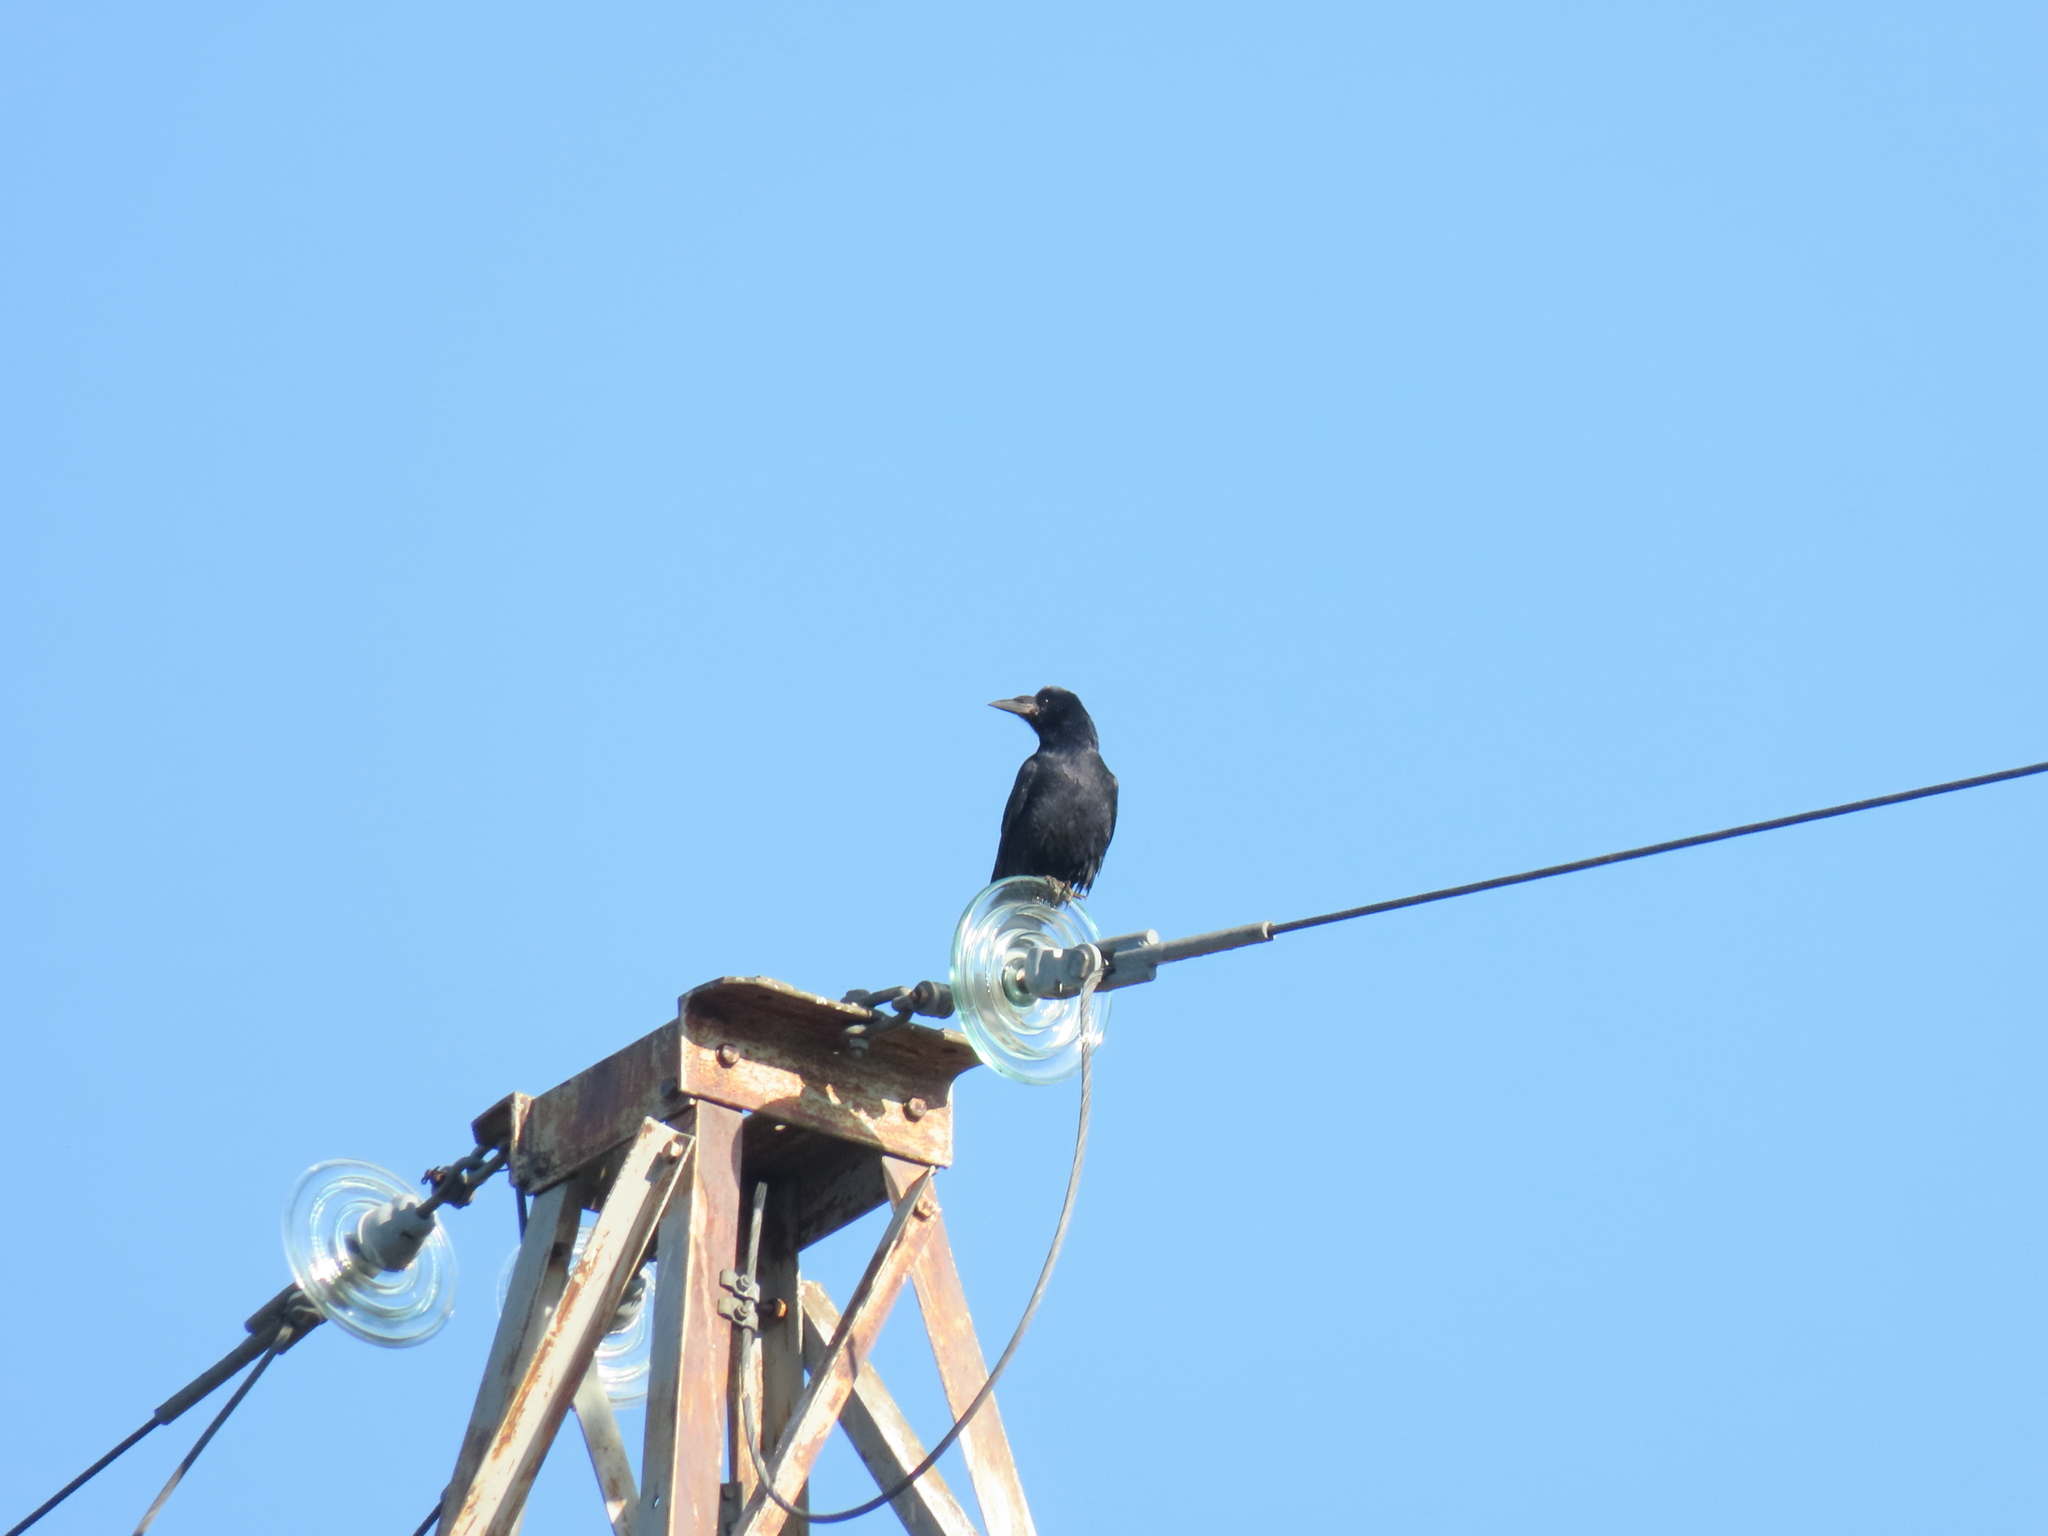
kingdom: Animalia
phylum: Chordata
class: Aves
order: Passeriformes
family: Corvidae
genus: Corvus
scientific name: Corvus frugilegus
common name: Rook
